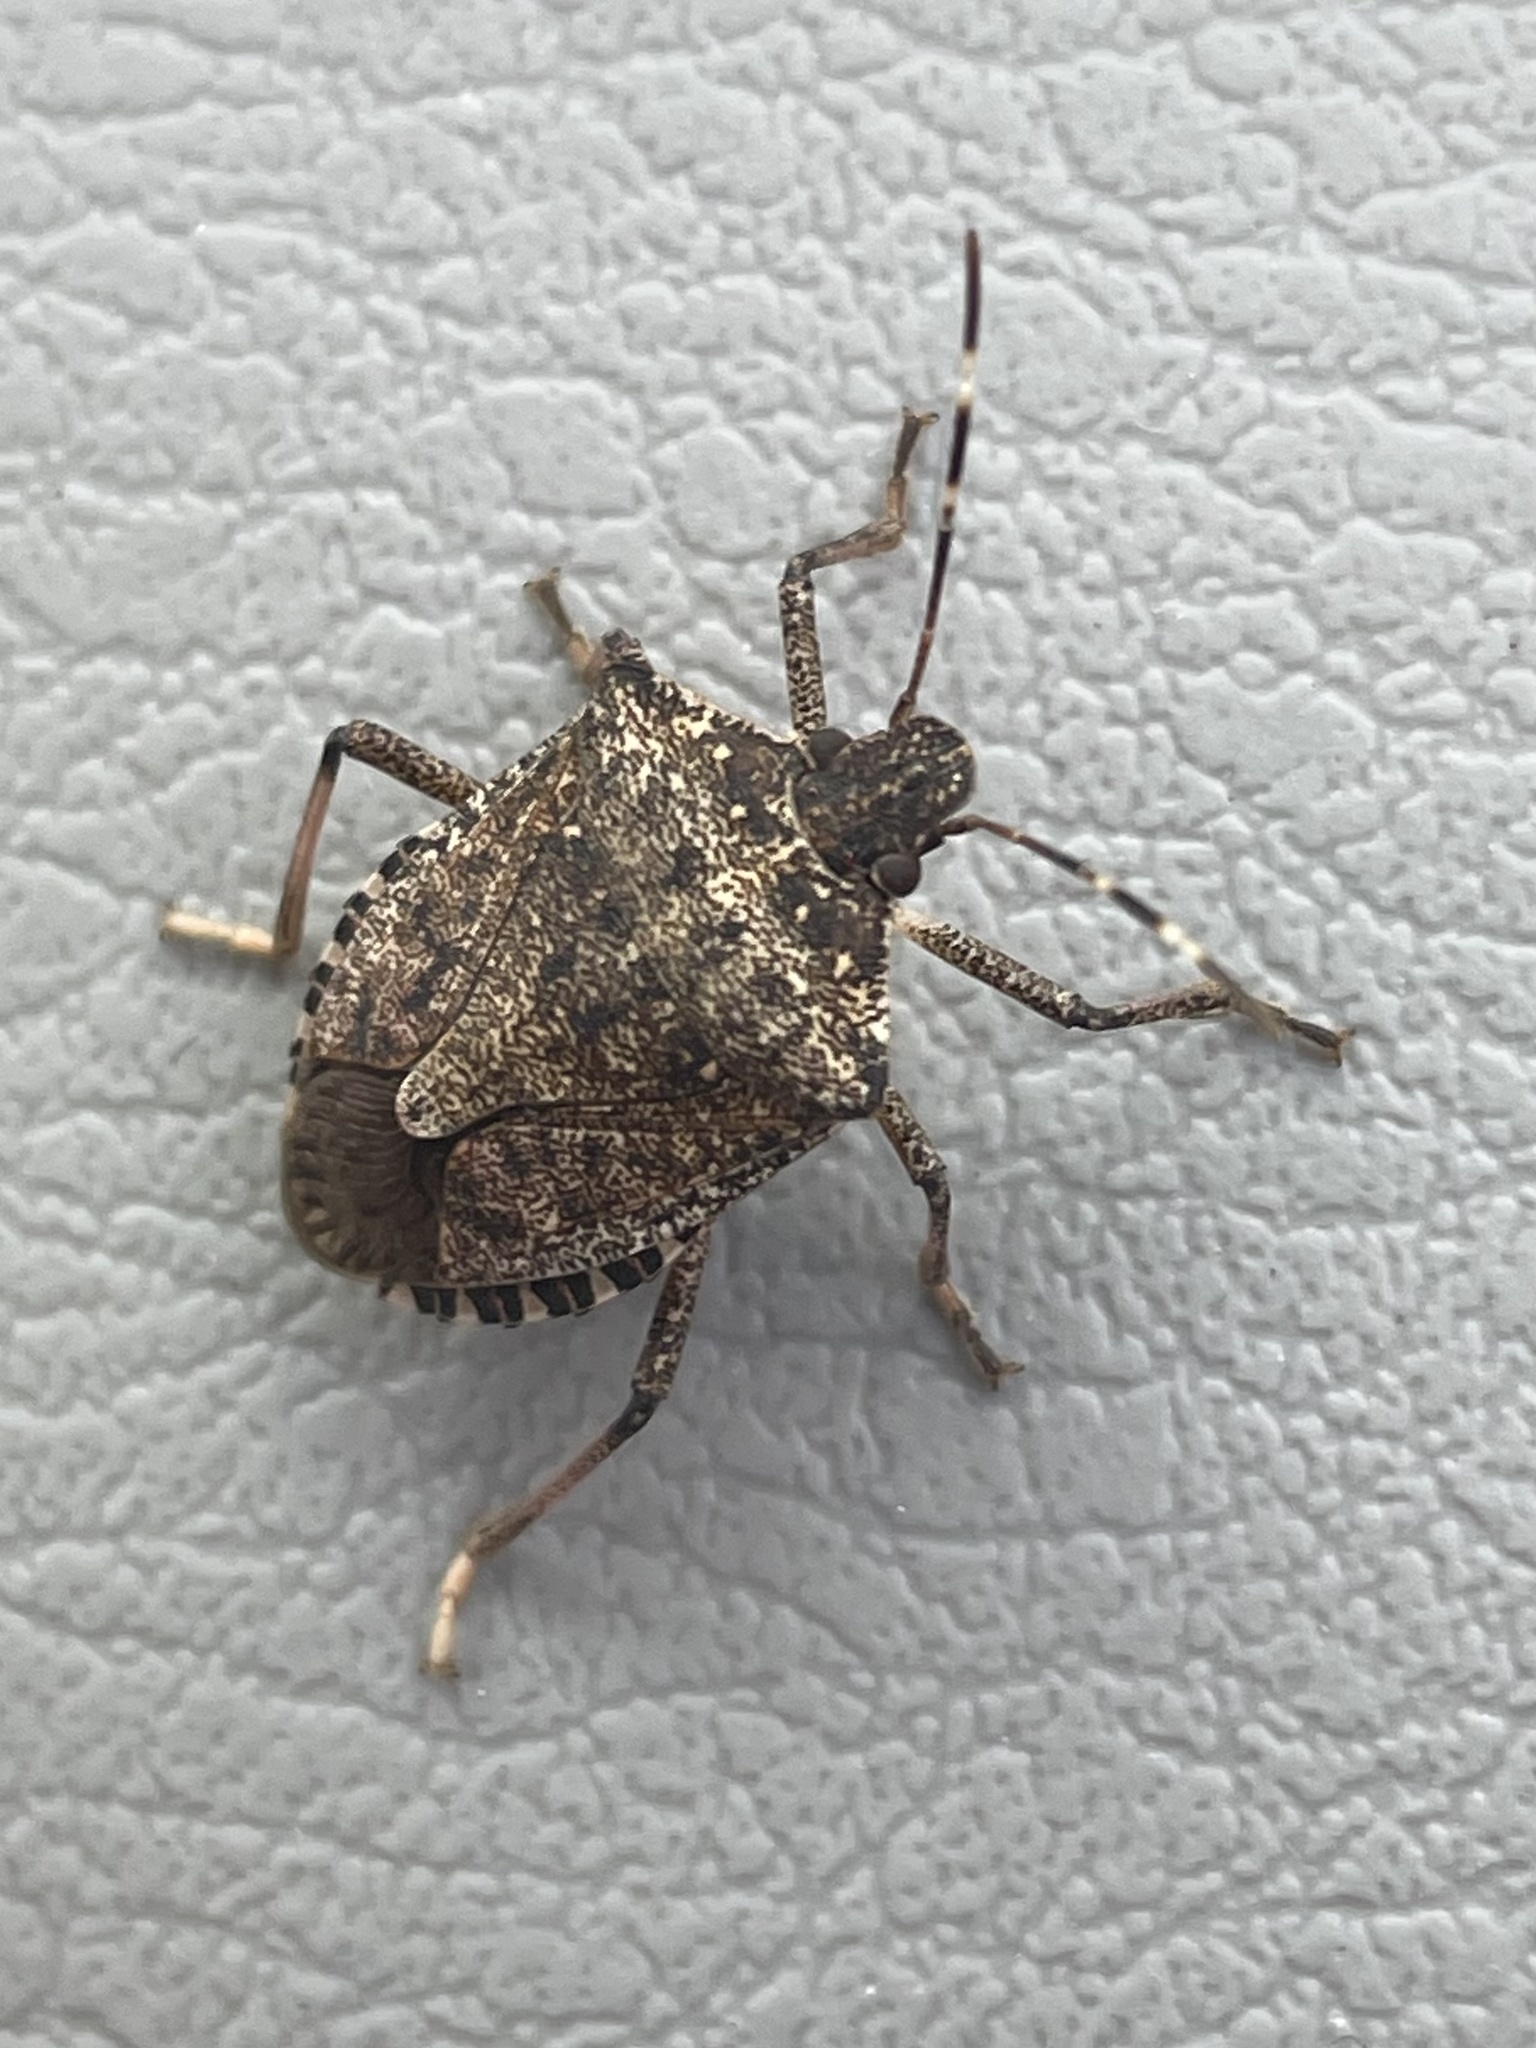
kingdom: Animalia
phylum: Arthropoda
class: Insecta
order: Hemiptera
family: Pentatomidae
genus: Halyomorpha
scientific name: Halyomorpha halys
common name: Brown marmorated stink bug
